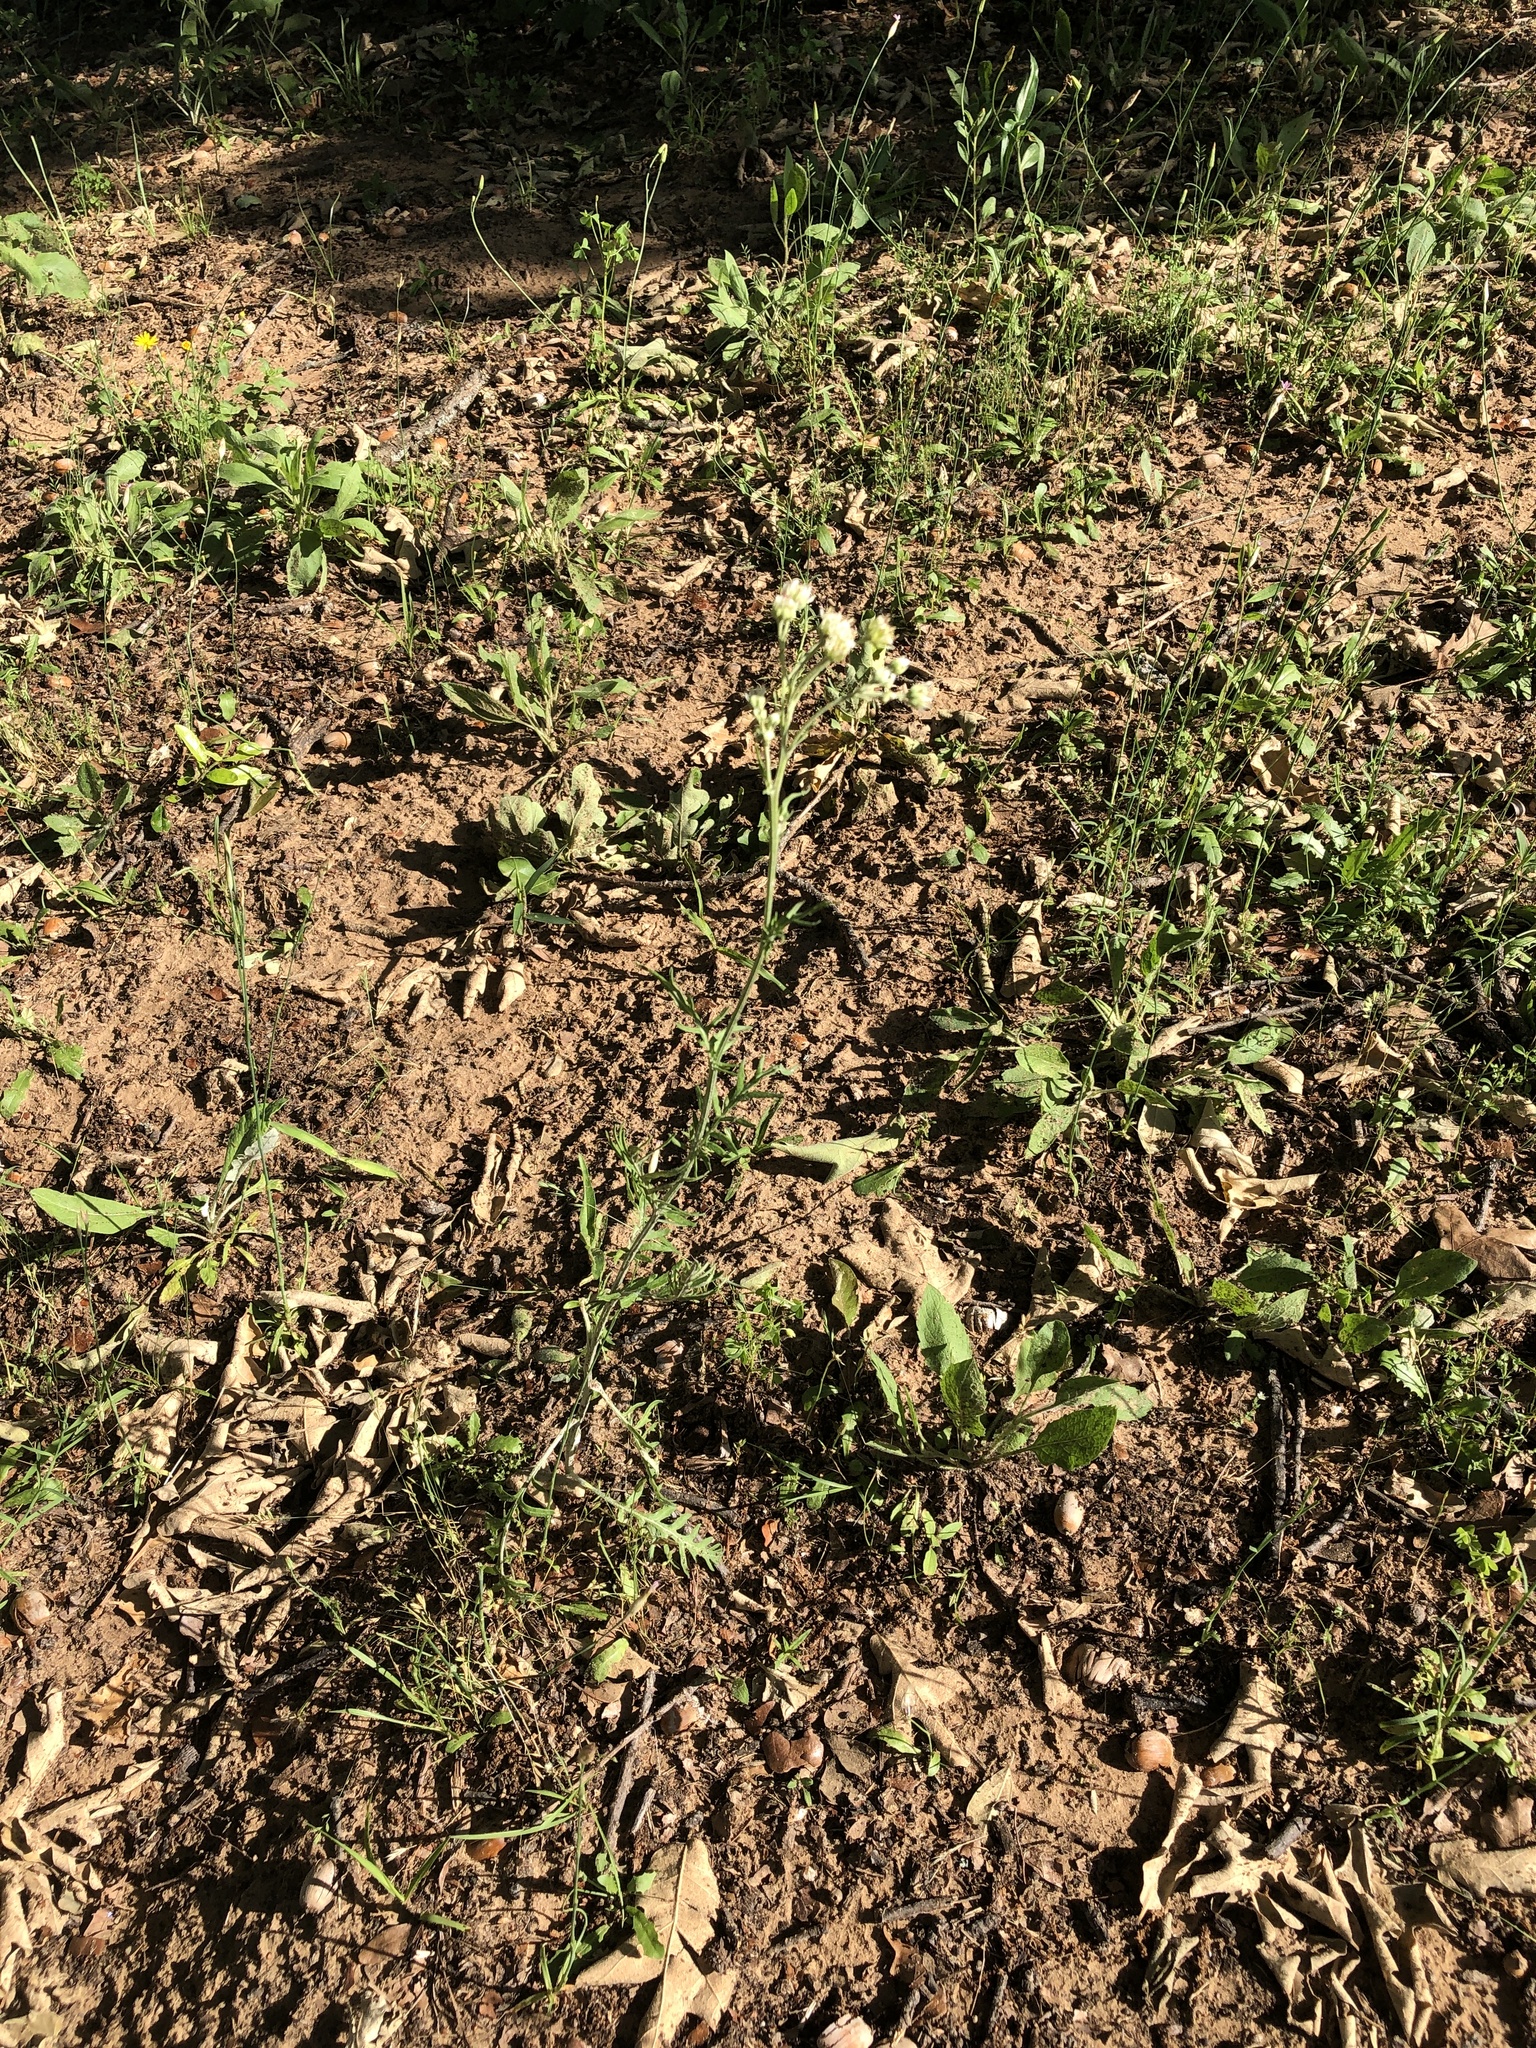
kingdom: Plantae
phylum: Tracheophyta
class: Magnoliopsida
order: Asterales
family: Asteraceae
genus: Hymenopappus
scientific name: Hymenopappus scabiosaeus
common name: Carolina woollywhite
